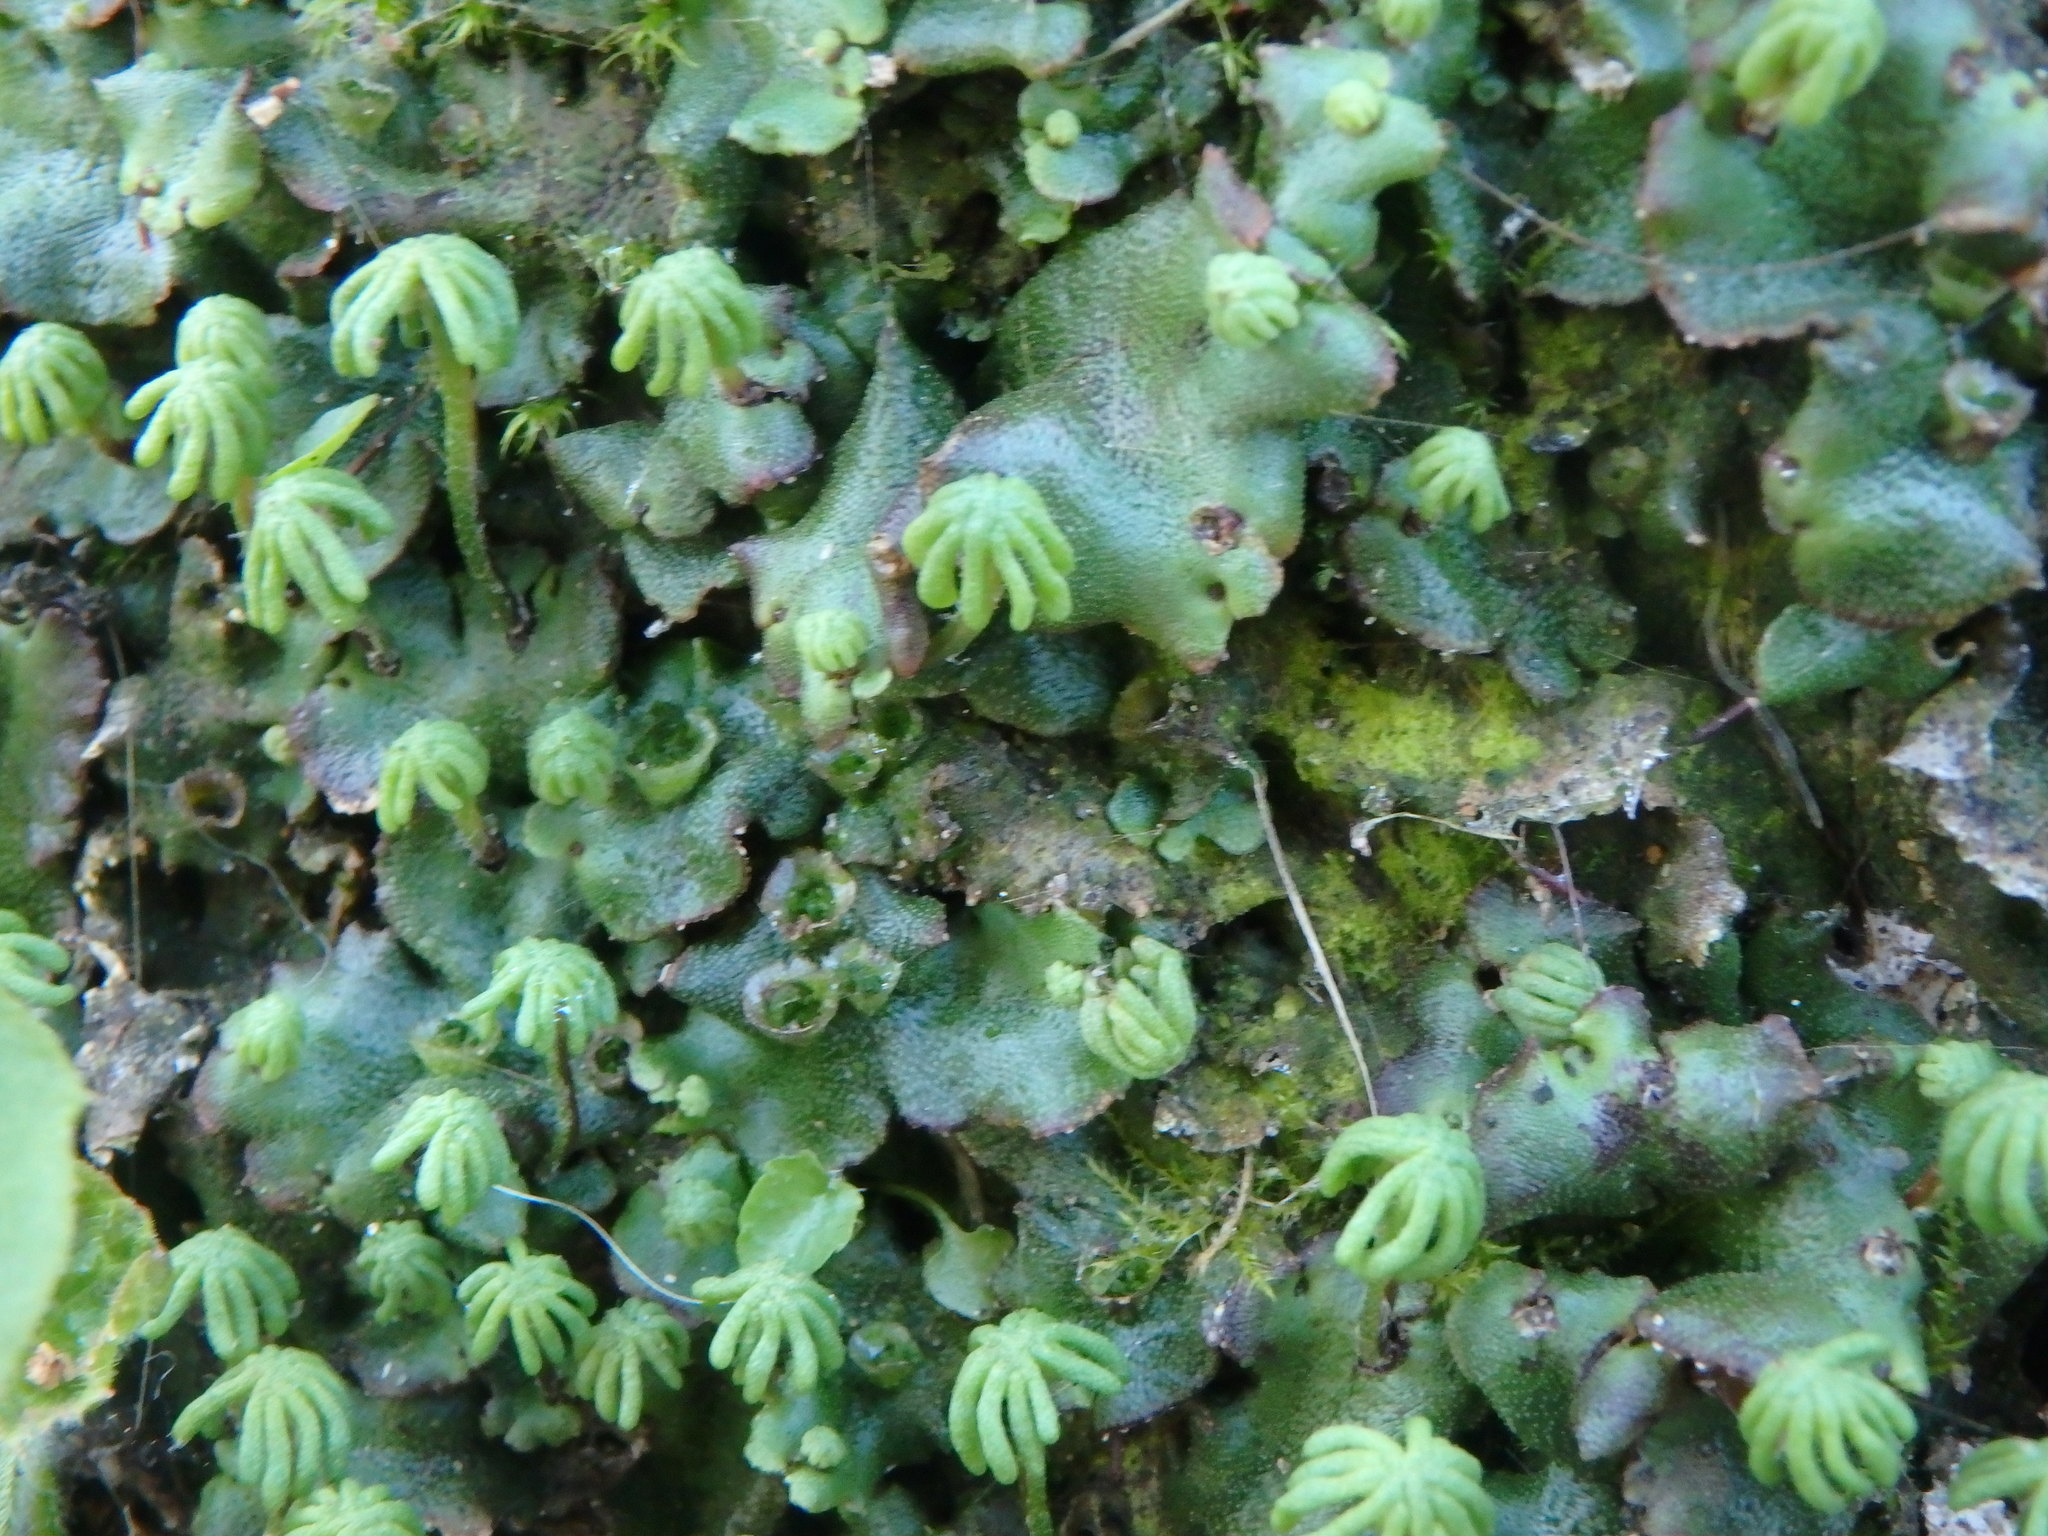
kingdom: Plantae
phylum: Marchantiophyta
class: Marchantiopsida
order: Marchantiales
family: Marchantiaceae
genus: Marchantia
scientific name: Marchantia polymorpha
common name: Common liverwort
